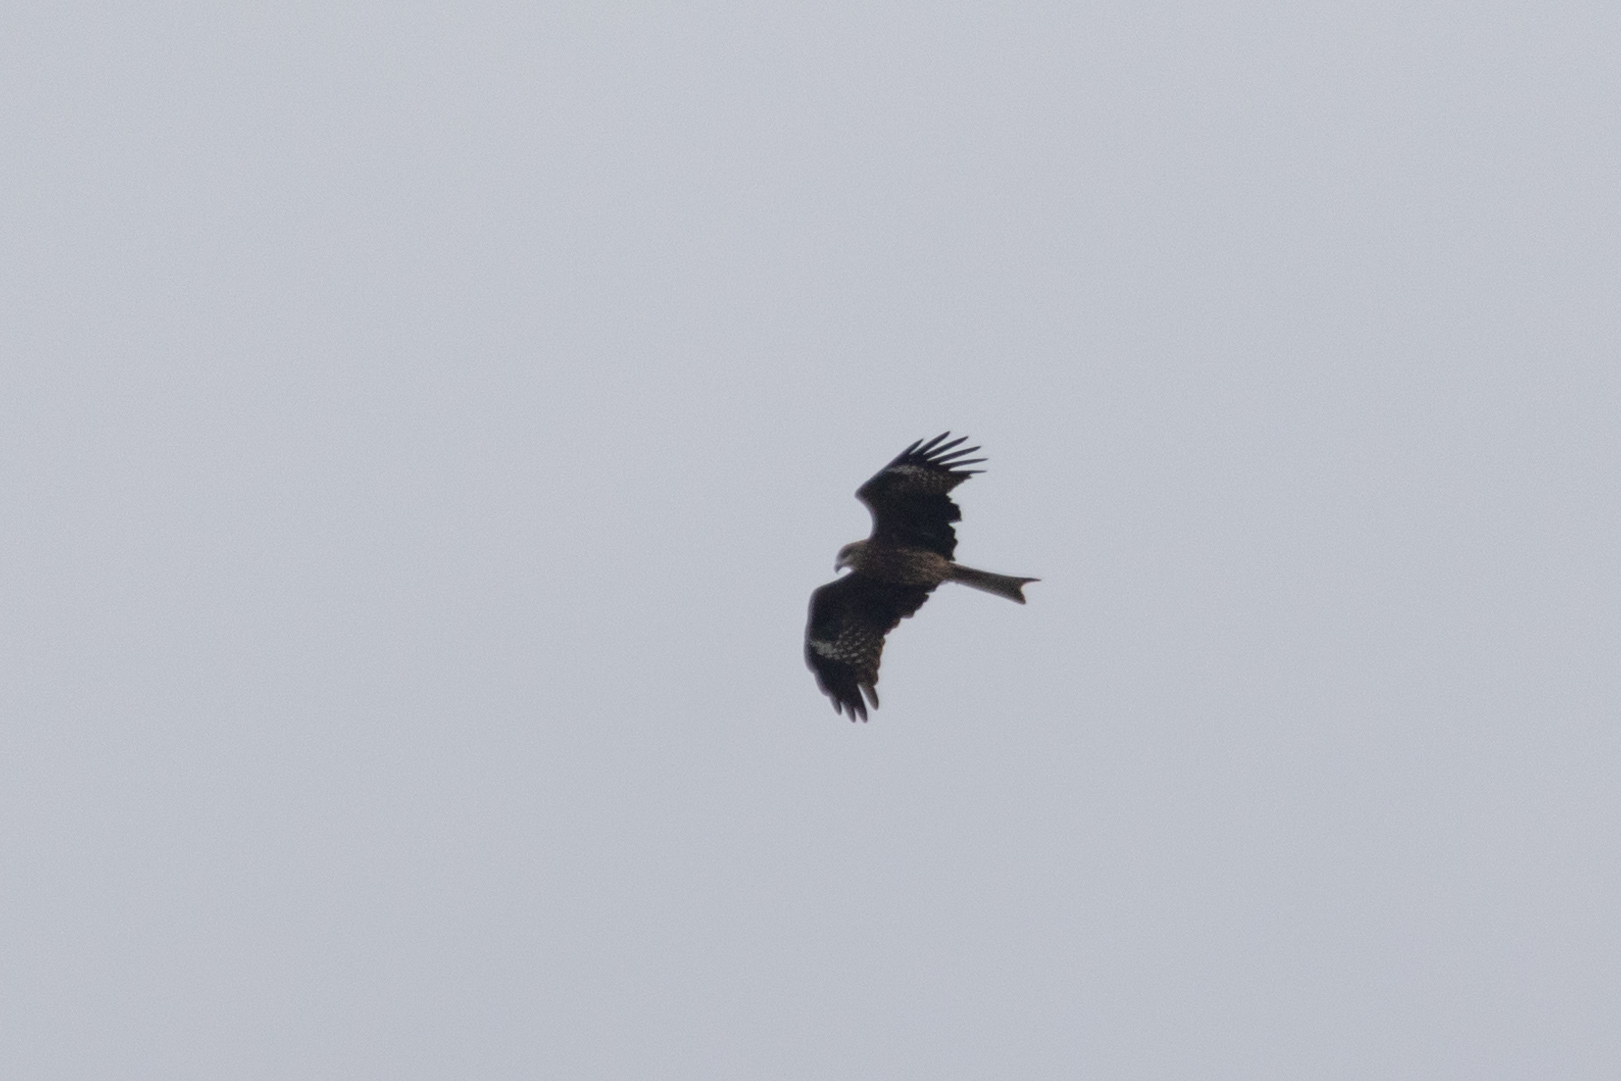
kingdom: Animalia
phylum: Chordata
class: Aves
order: Accipitriformes
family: Accipitridae
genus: Milvus
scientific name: Milvus migrans
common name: Black kite
